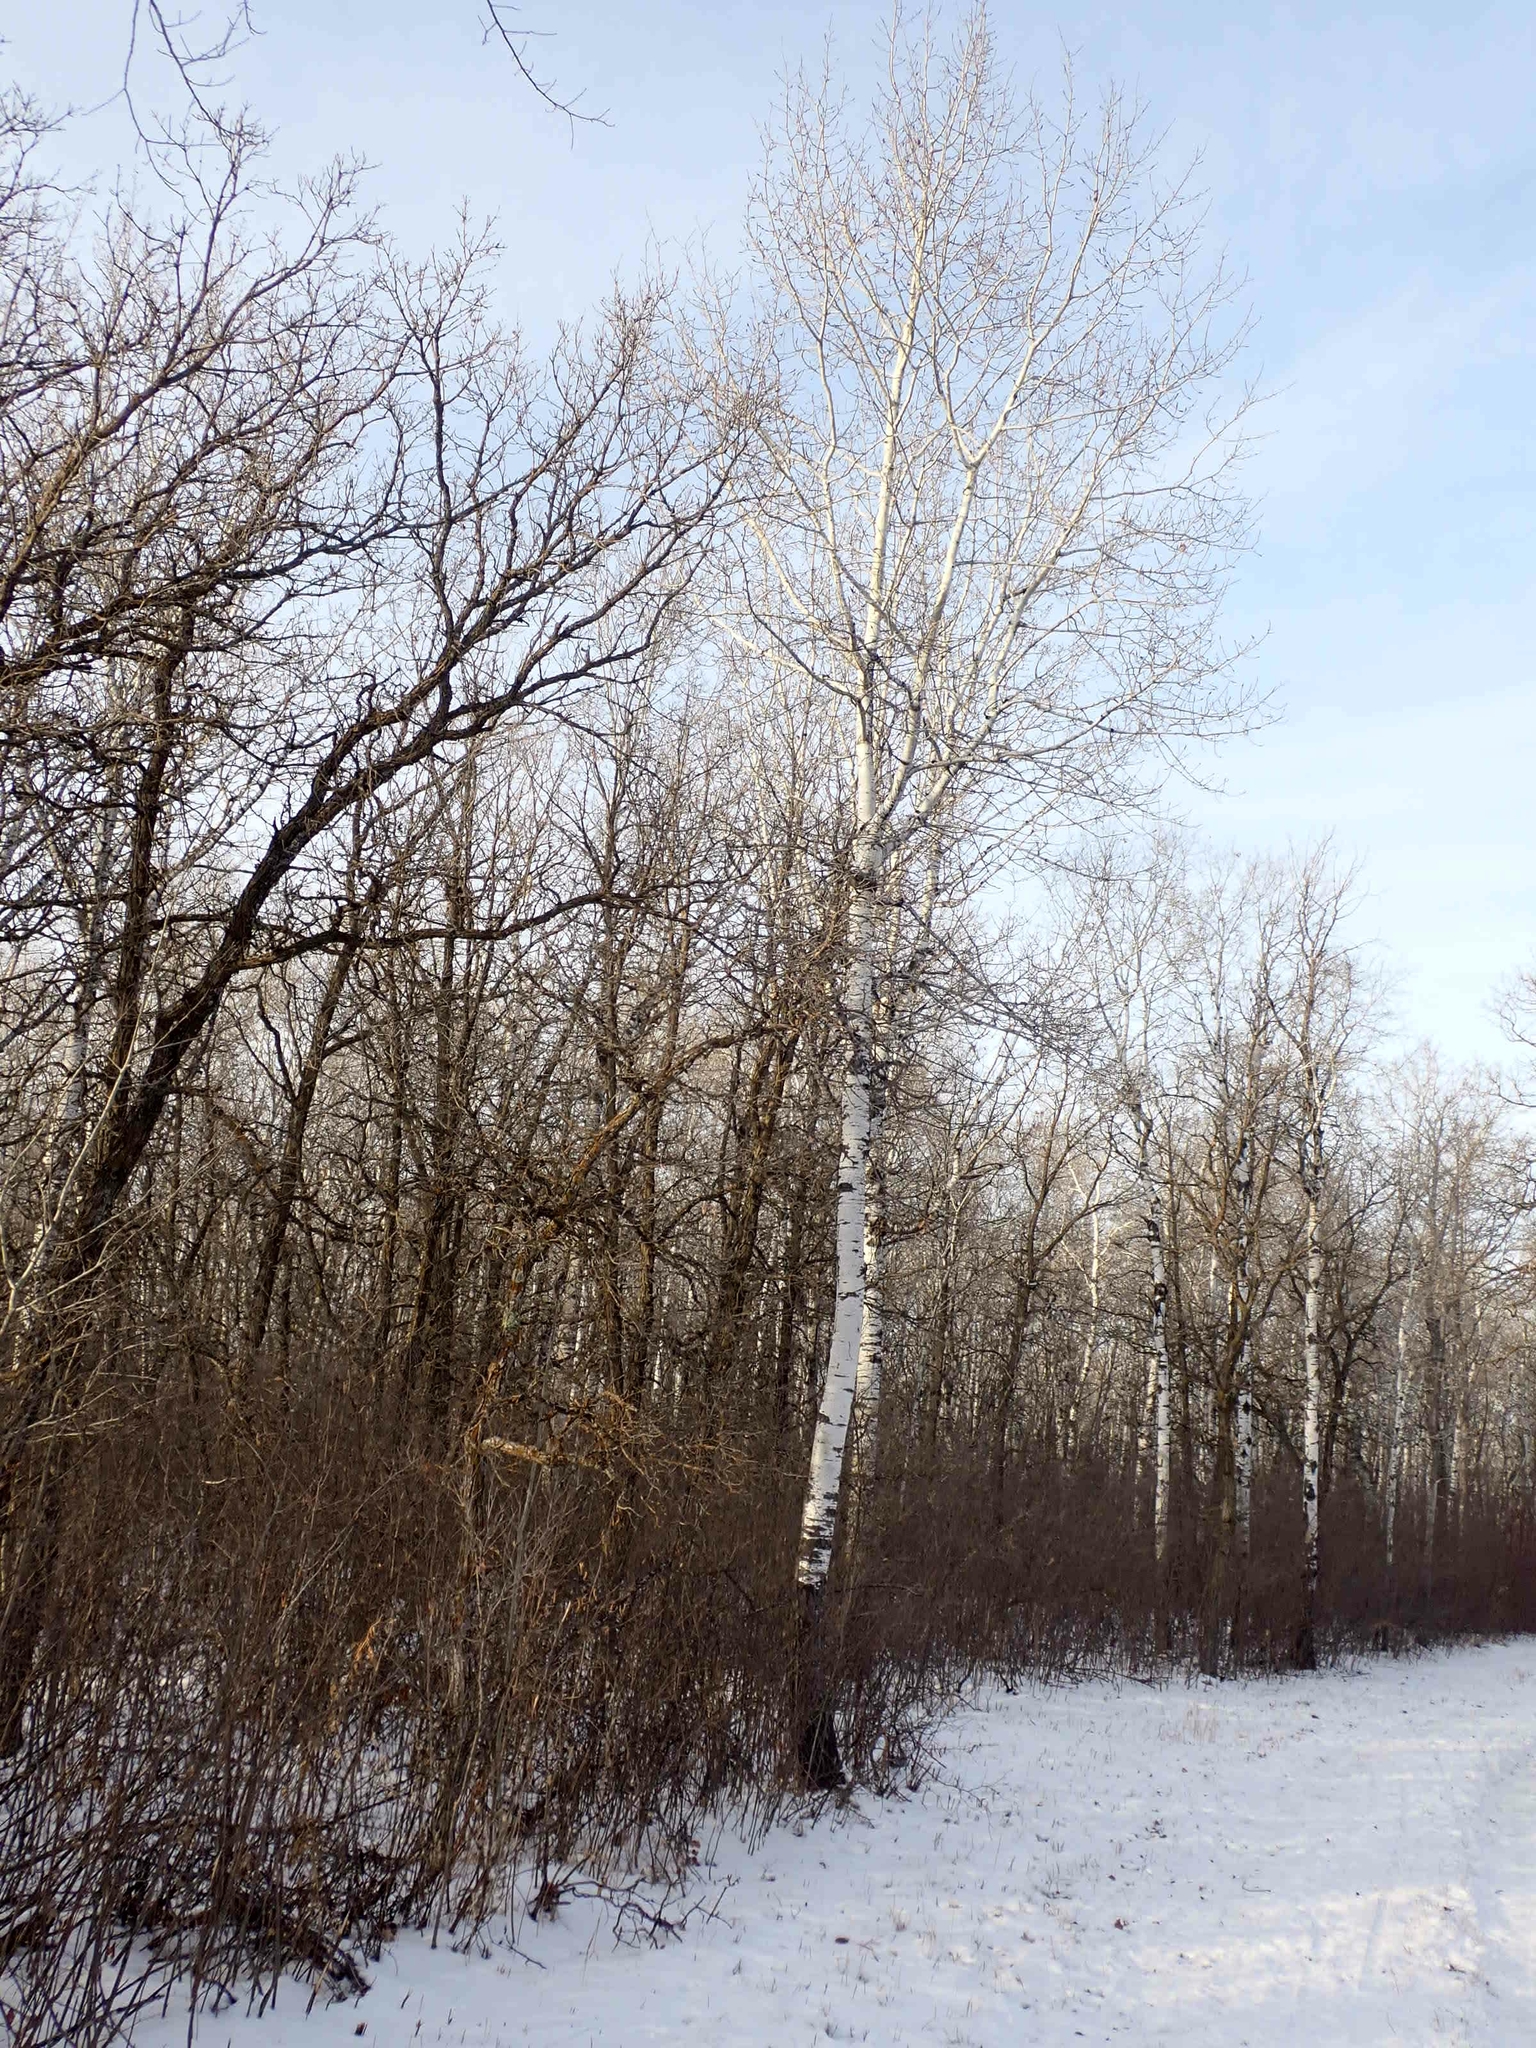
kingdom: Plantae
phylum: Tracheophyta
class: Magnoliopsida
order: Malpighiales
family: Salicaceae
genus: Populus
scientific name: Populus tremuloides
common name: Quaking aspen
